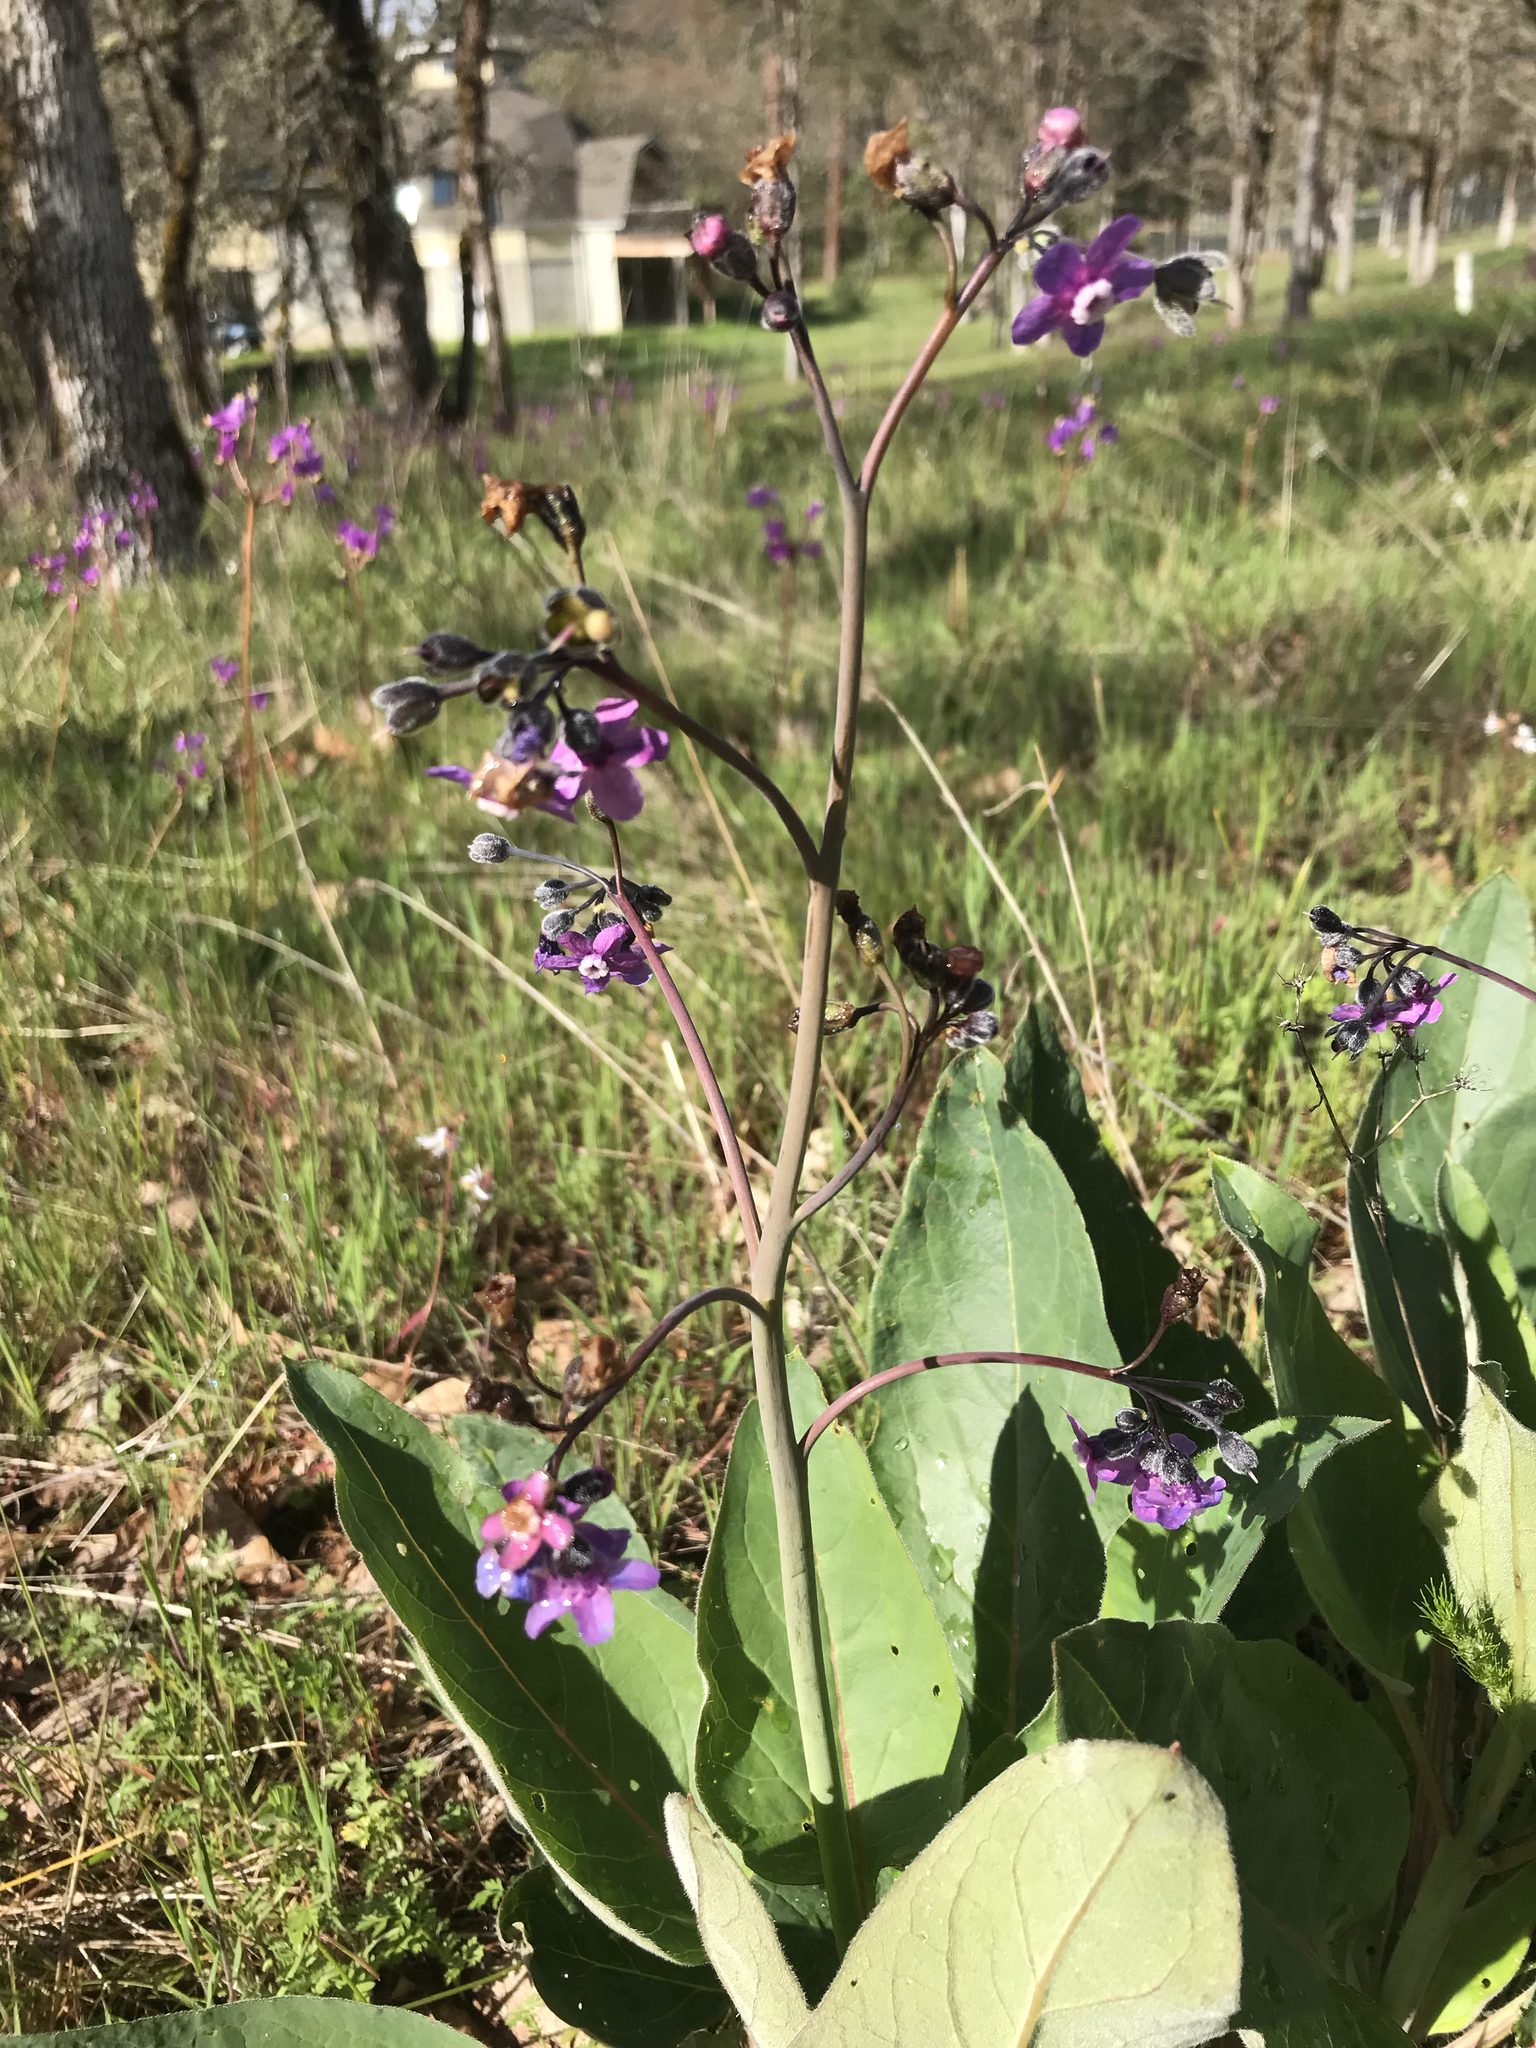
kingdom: Plantae
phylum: Tracheophyta
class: Magnoliopsida
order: Boraginales
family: Boraginaceae
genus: Adelinia
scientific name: Adelinia grande
